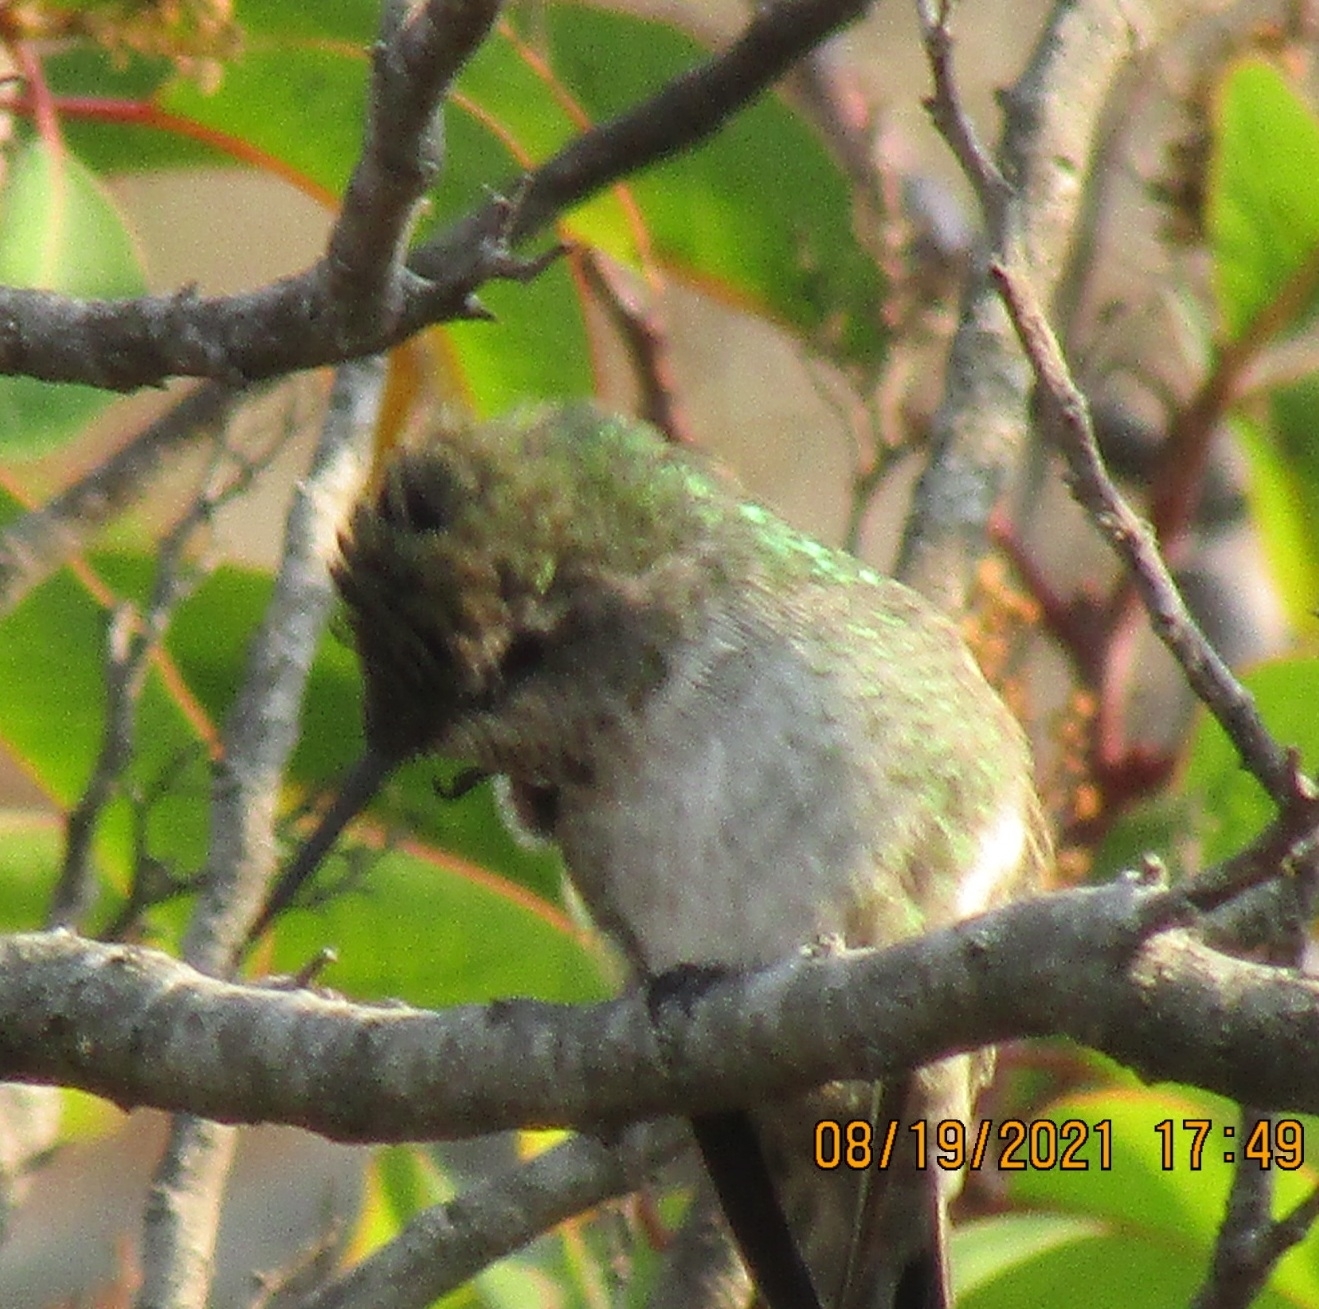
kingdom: Animalia
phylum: Chordata
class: Aves
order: Apodiformes
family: Trochilidae
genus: Calypte
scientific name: Calypte anna
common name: Anna's hummingbird
